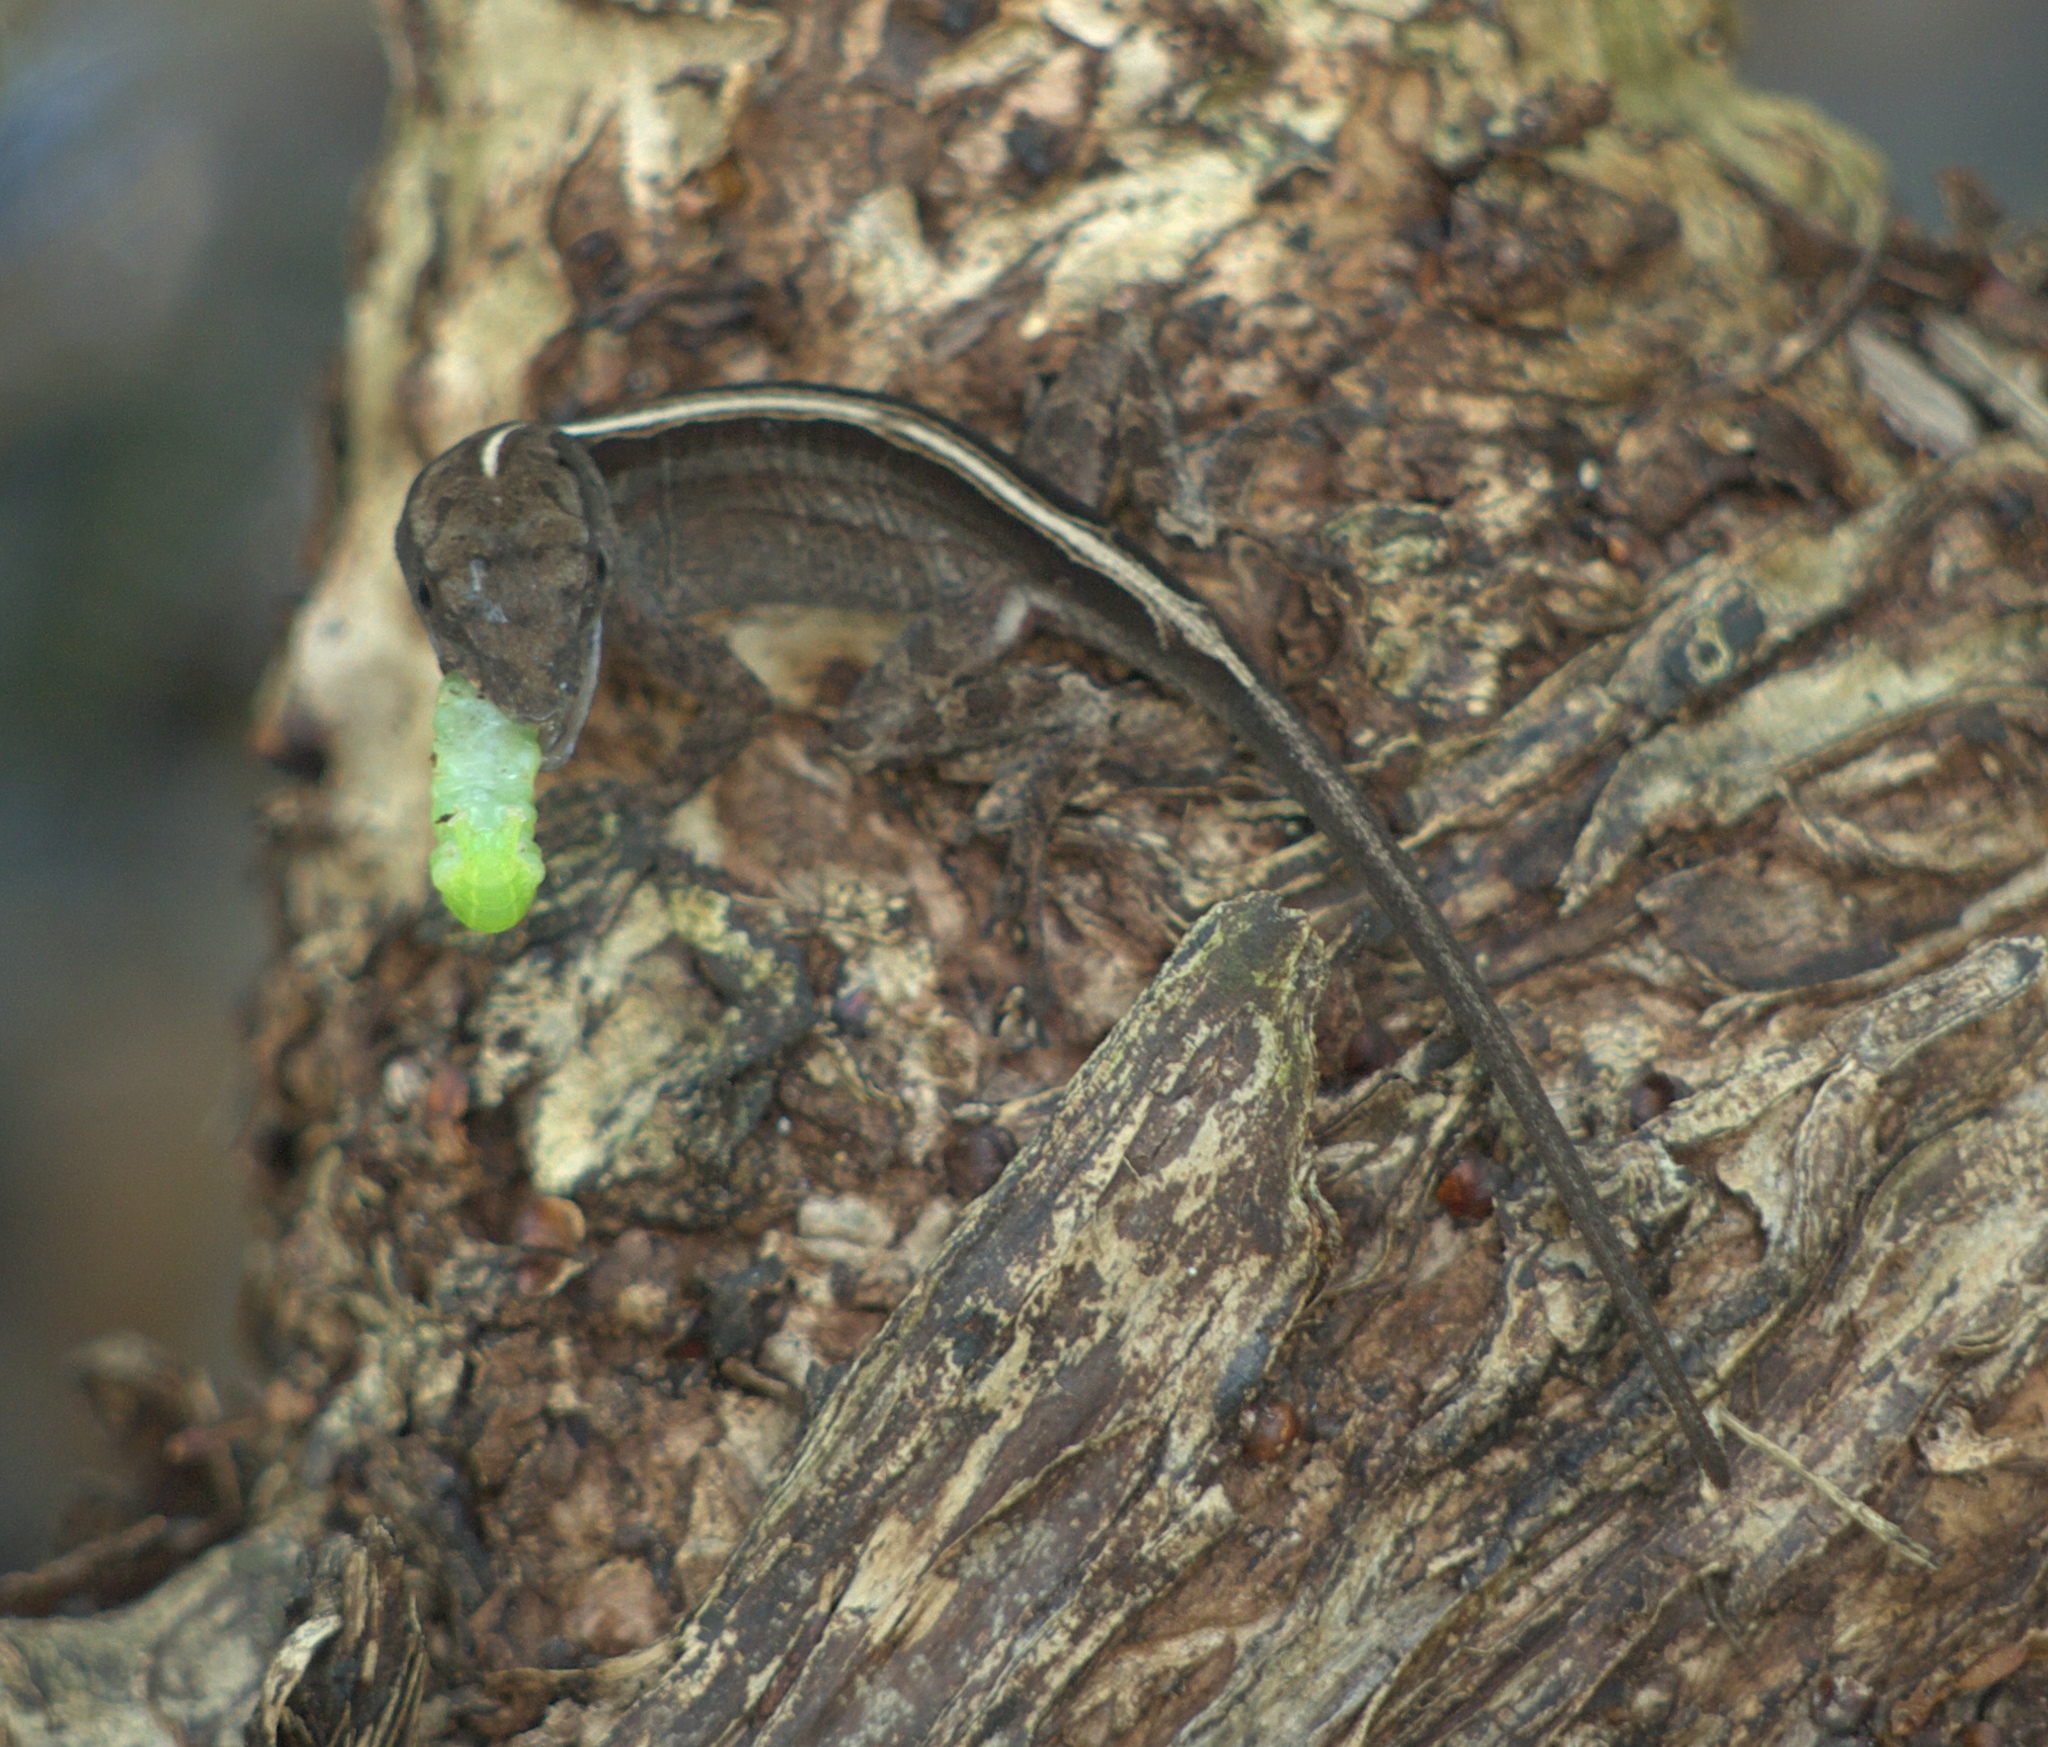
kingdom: Animalia
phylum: Chordata
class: Squamata
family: Dactyloidae
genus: Anolis
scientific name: Anolis sagrei
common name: Brown anole
